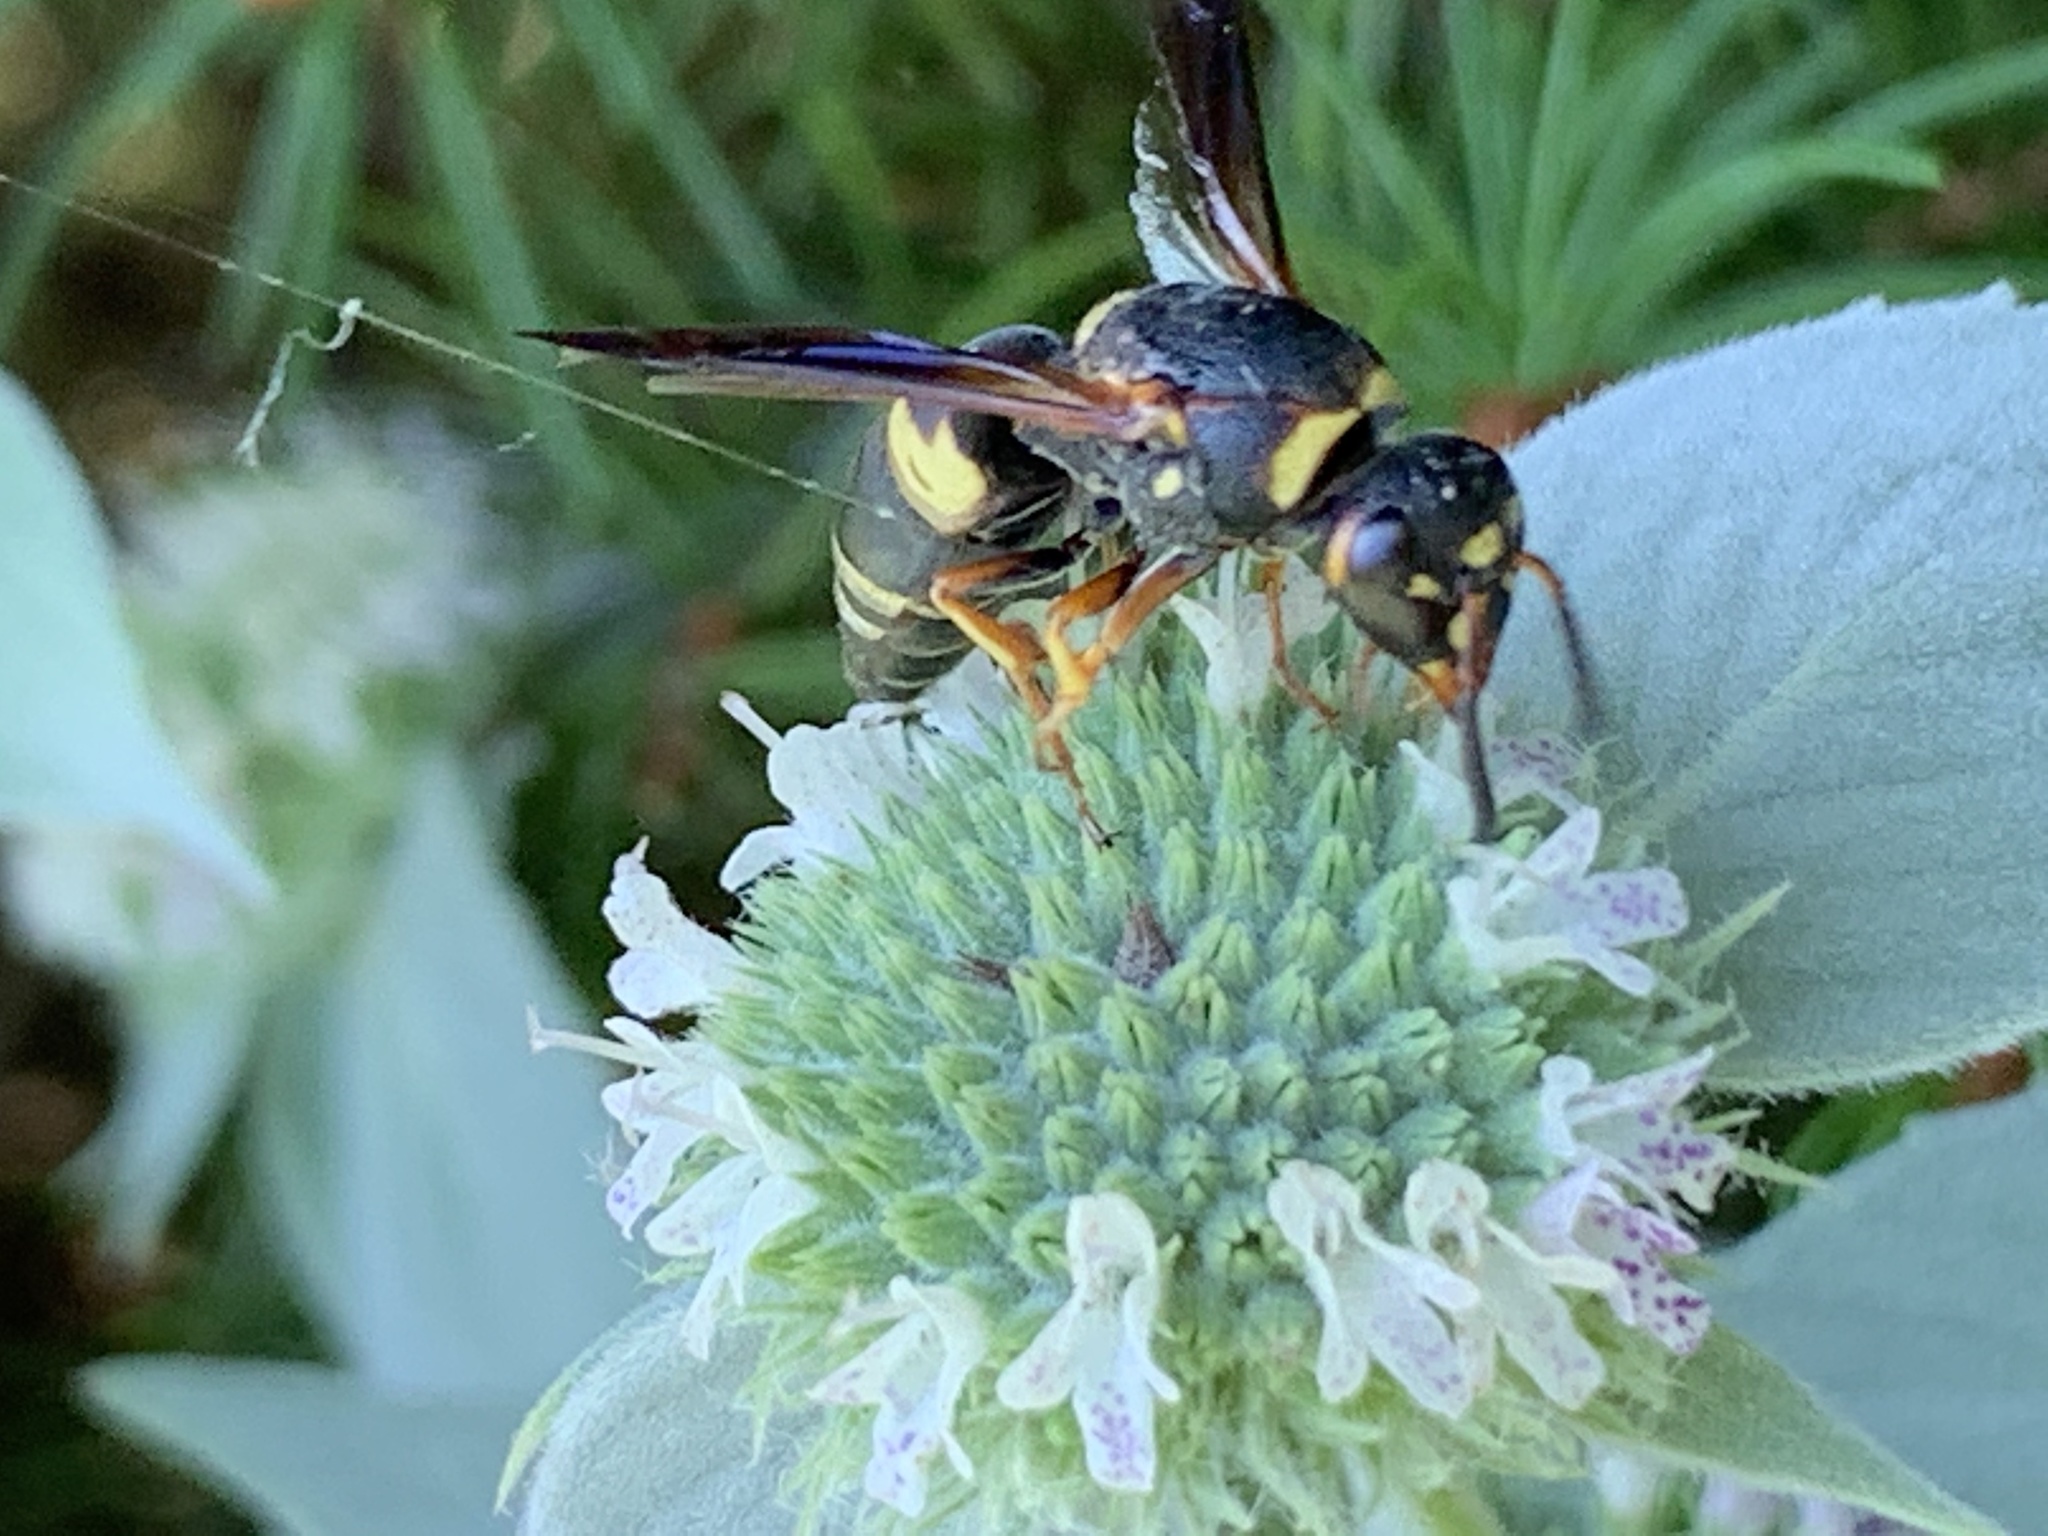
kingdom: Animalia
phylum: Arthropoda
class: Insecta
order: Hymenoptera
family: Eumenidae
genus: Euodynerus
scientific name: Euodynerus hidalgo
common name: Wasp
